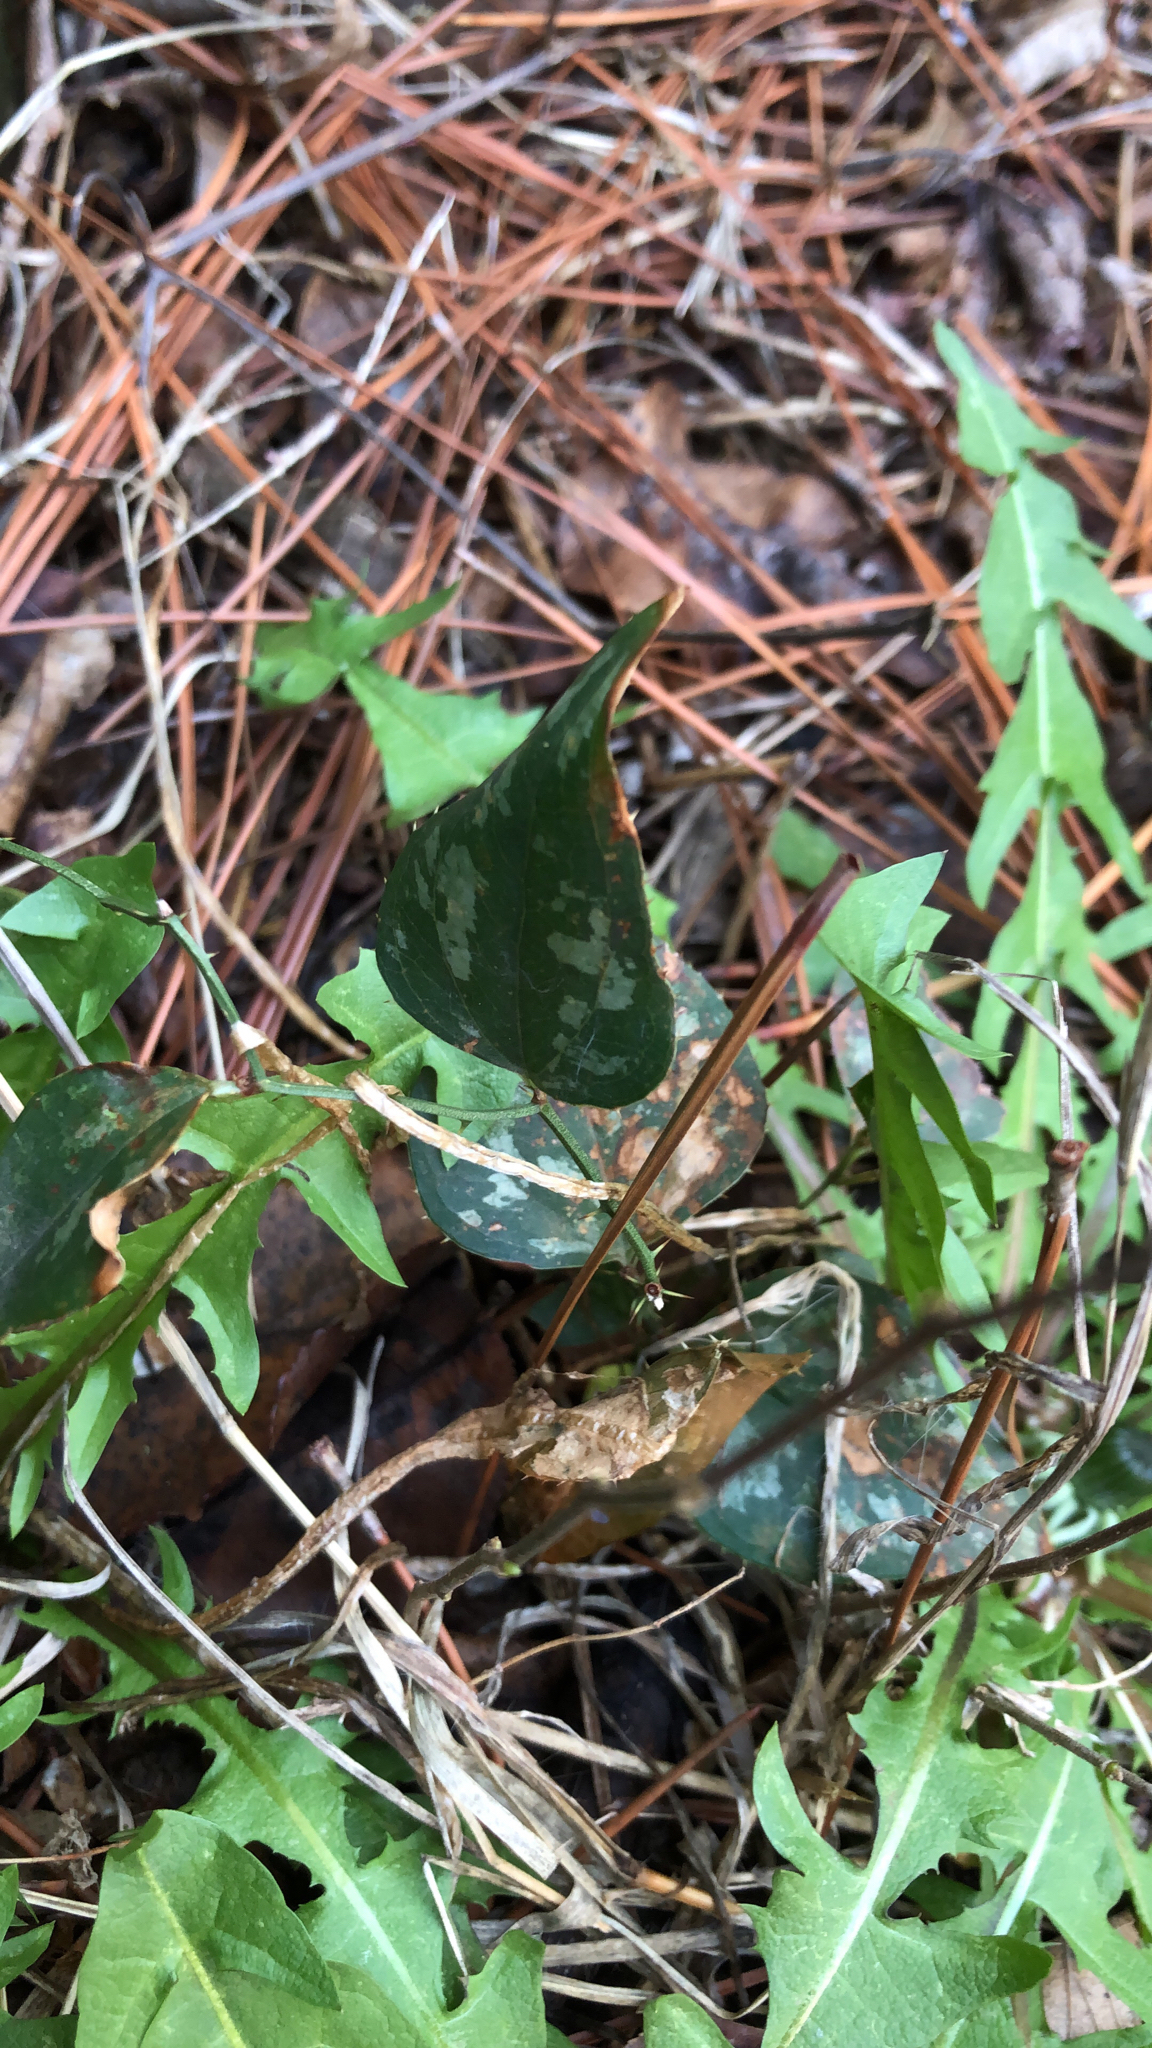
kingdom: Plantae
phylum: Tracheophyta
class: Liliopsida
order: Liliales
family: Smilacaceae
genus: Smilax
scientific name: Smilax bona-nox
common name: Catbrier
